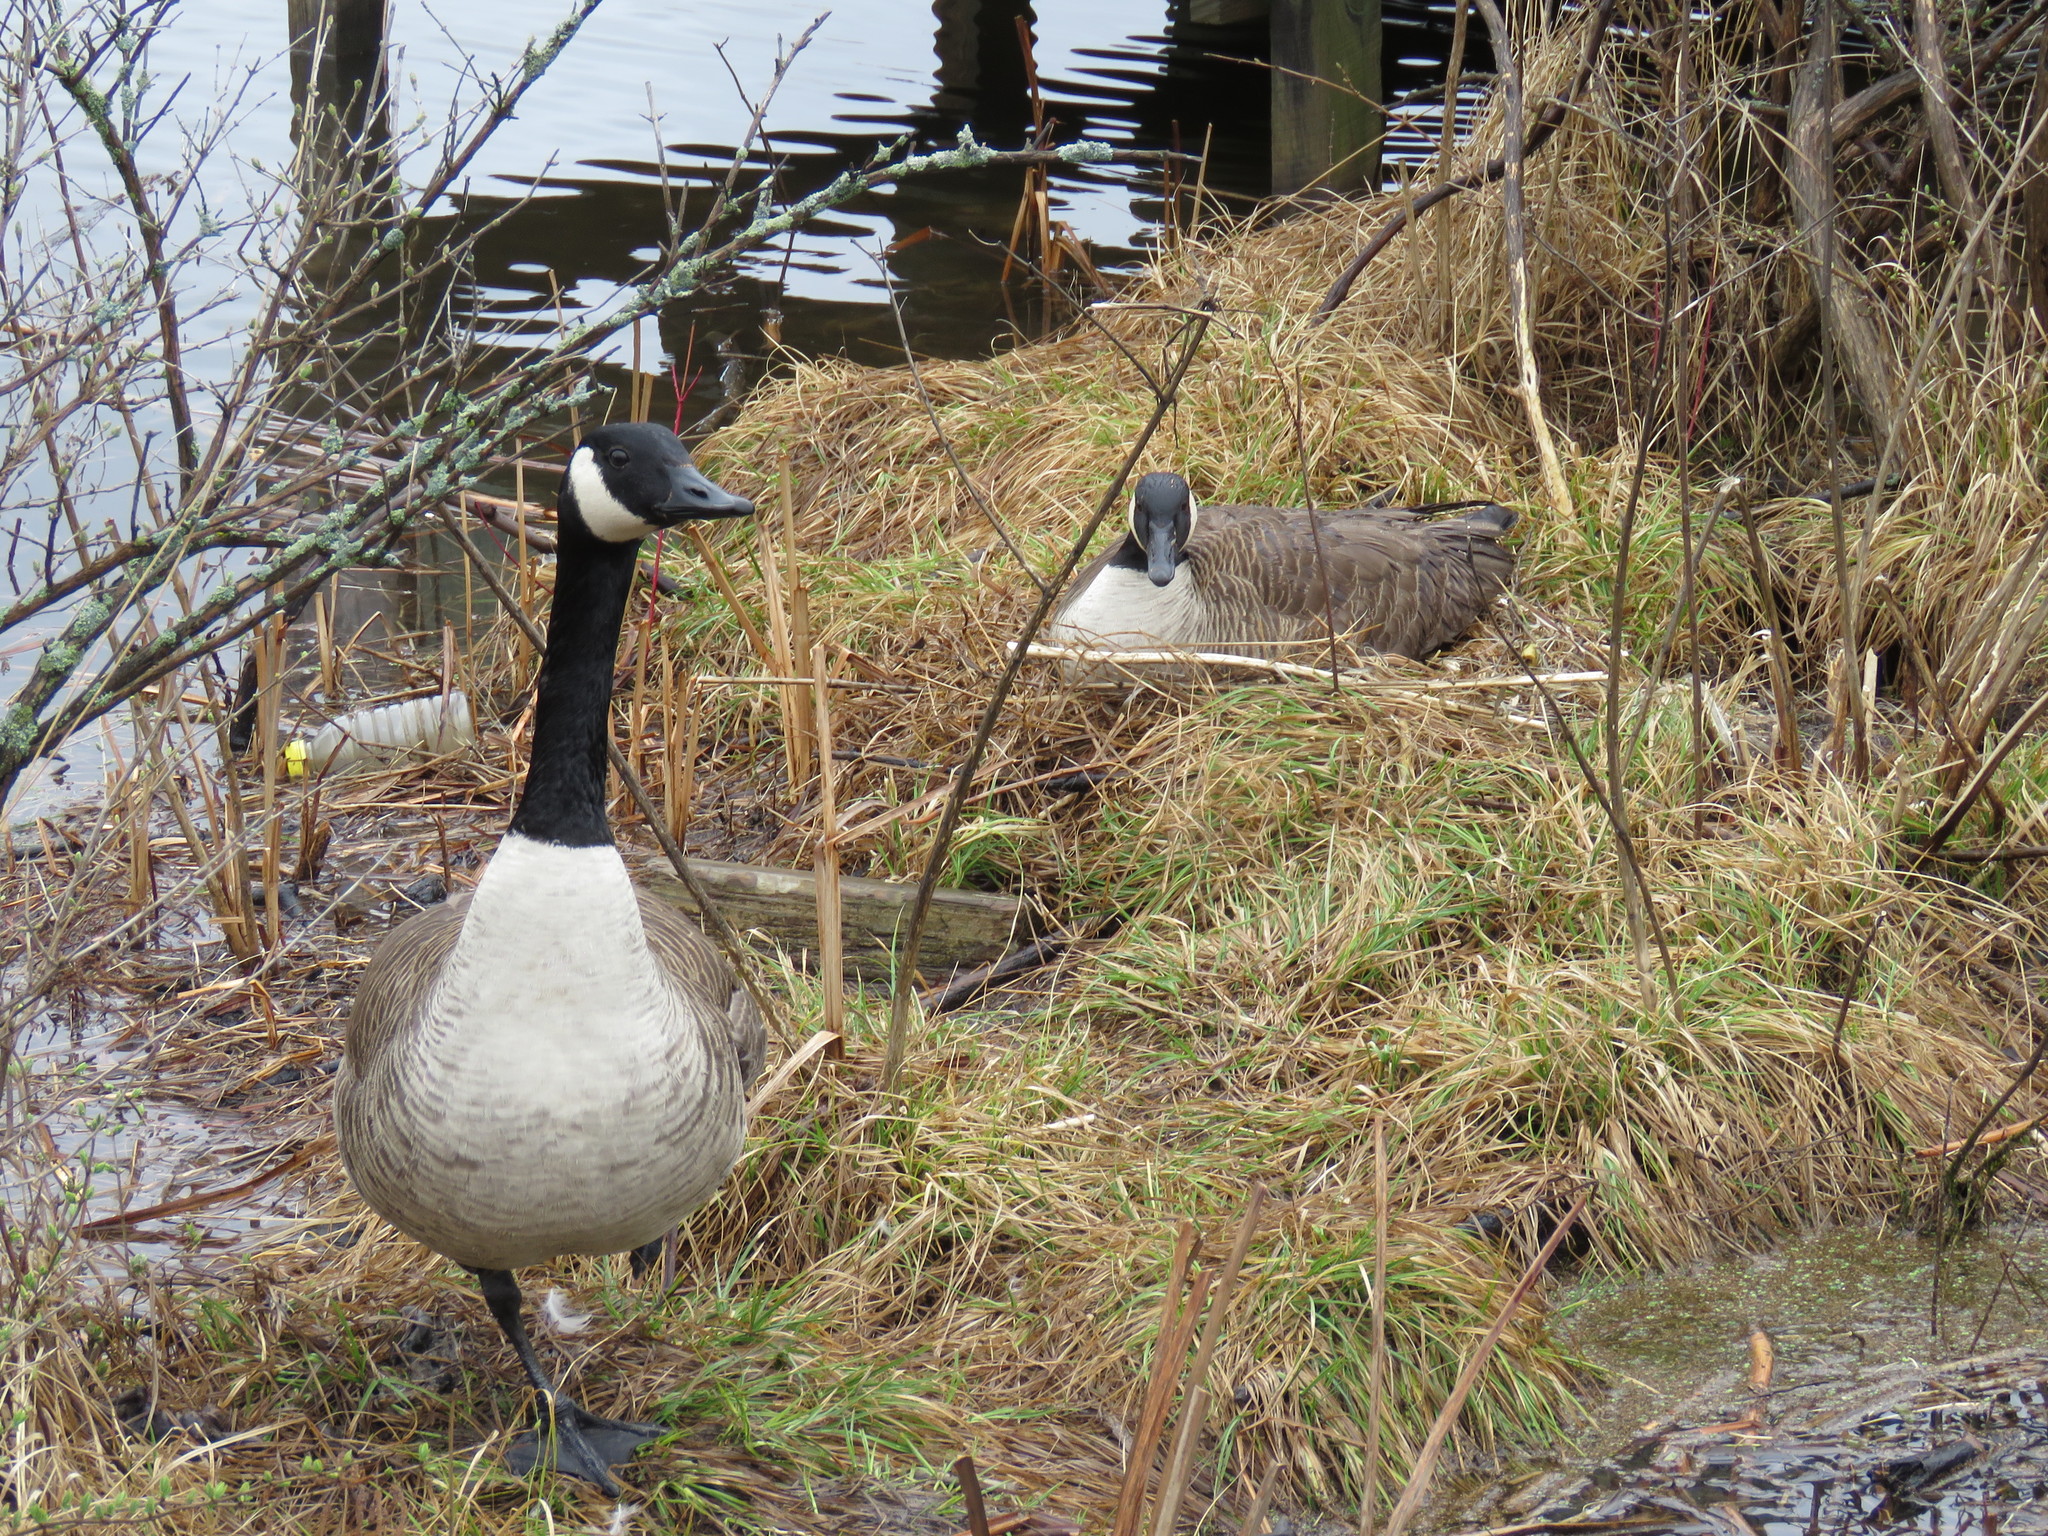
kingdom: Animalia
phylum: Chordata
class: Aves
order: Anseriformes
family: Anatidae
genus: Branta
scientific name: Branta canadensis
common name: Canada goose
